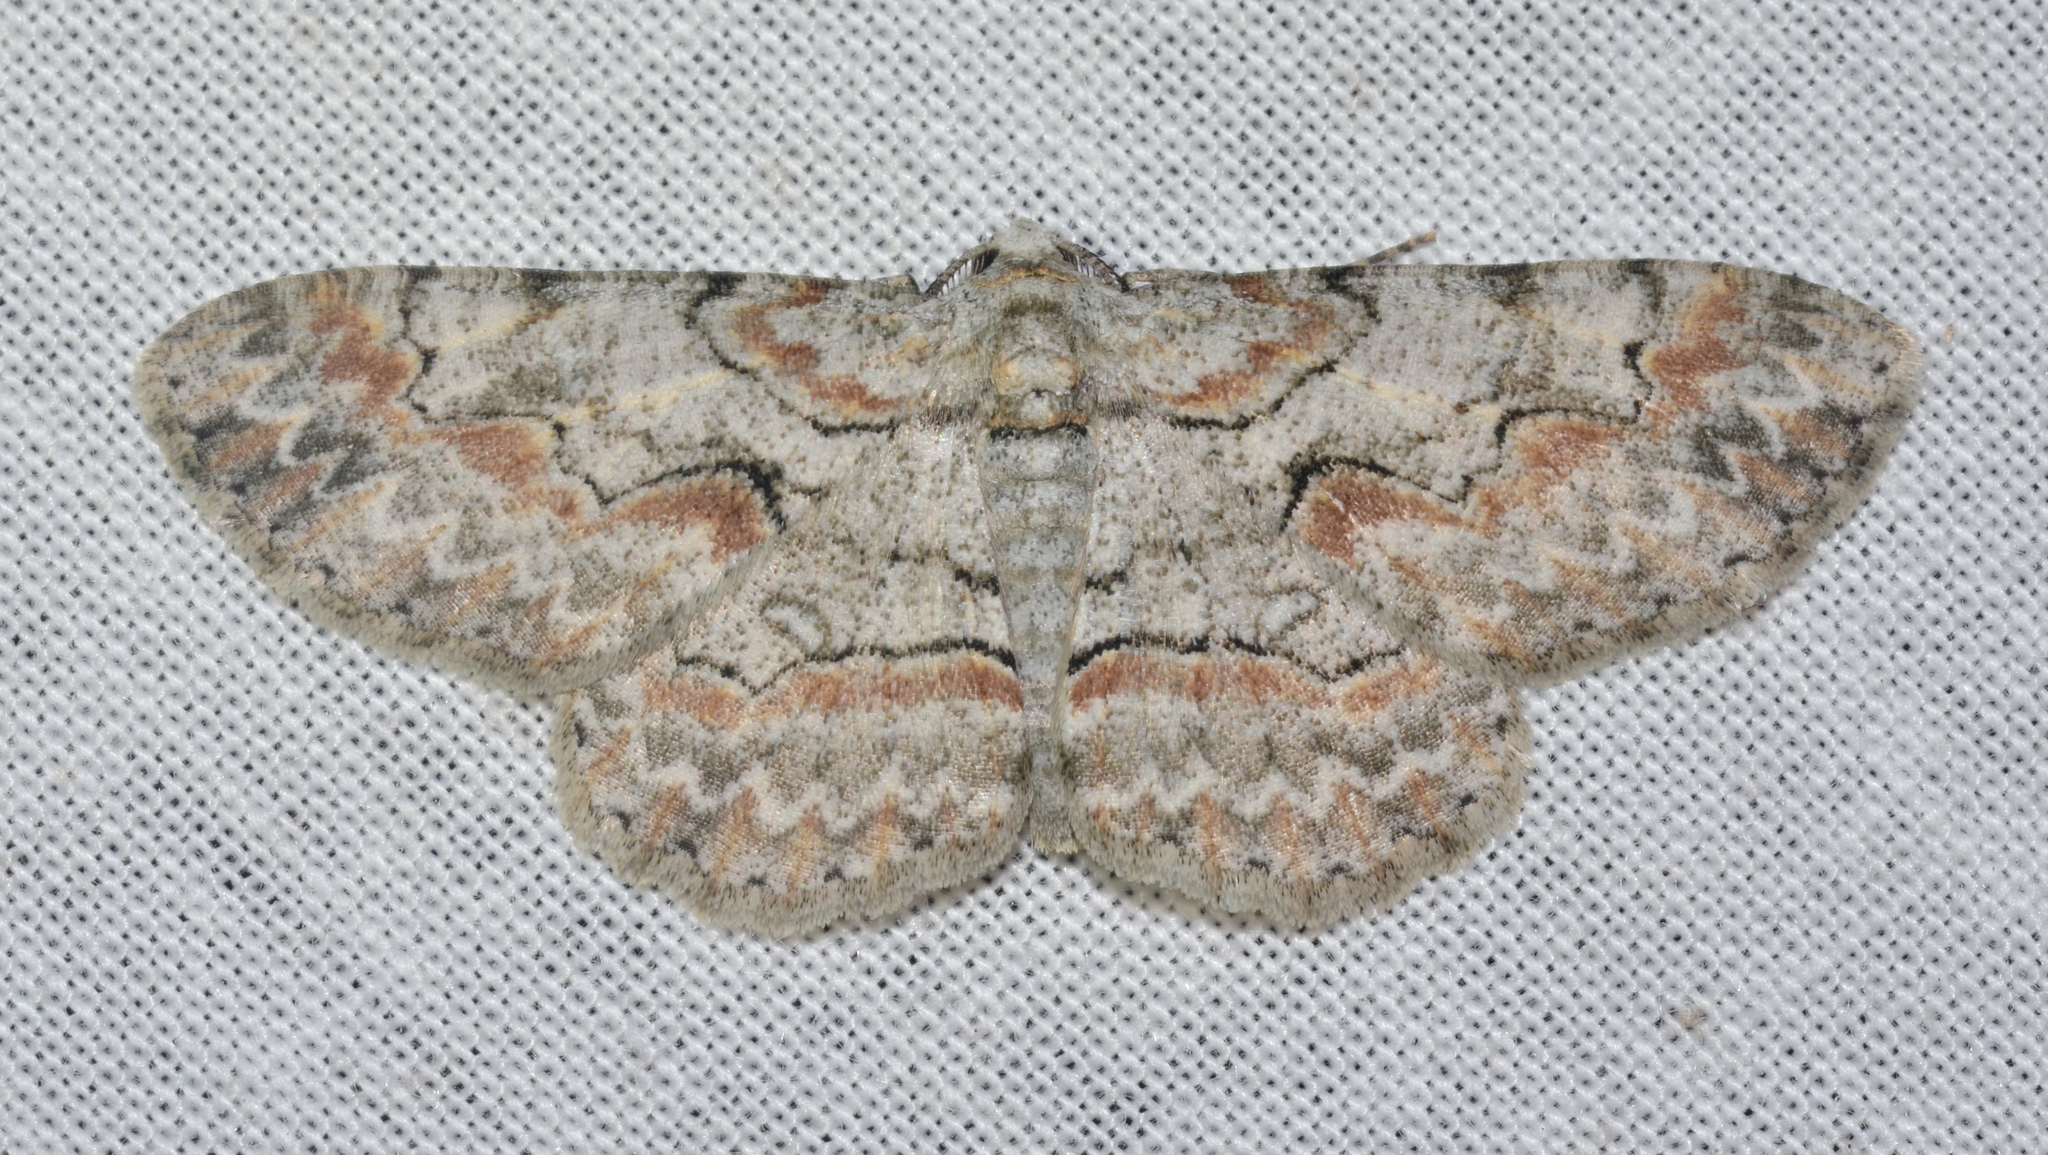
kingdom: Animalia
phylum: Arthropoda
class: Insecta
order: Lepidoptera
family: Geometridae
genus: Iridopsis
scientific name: Iridopsis defectaria
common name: Brown-shaded gray
